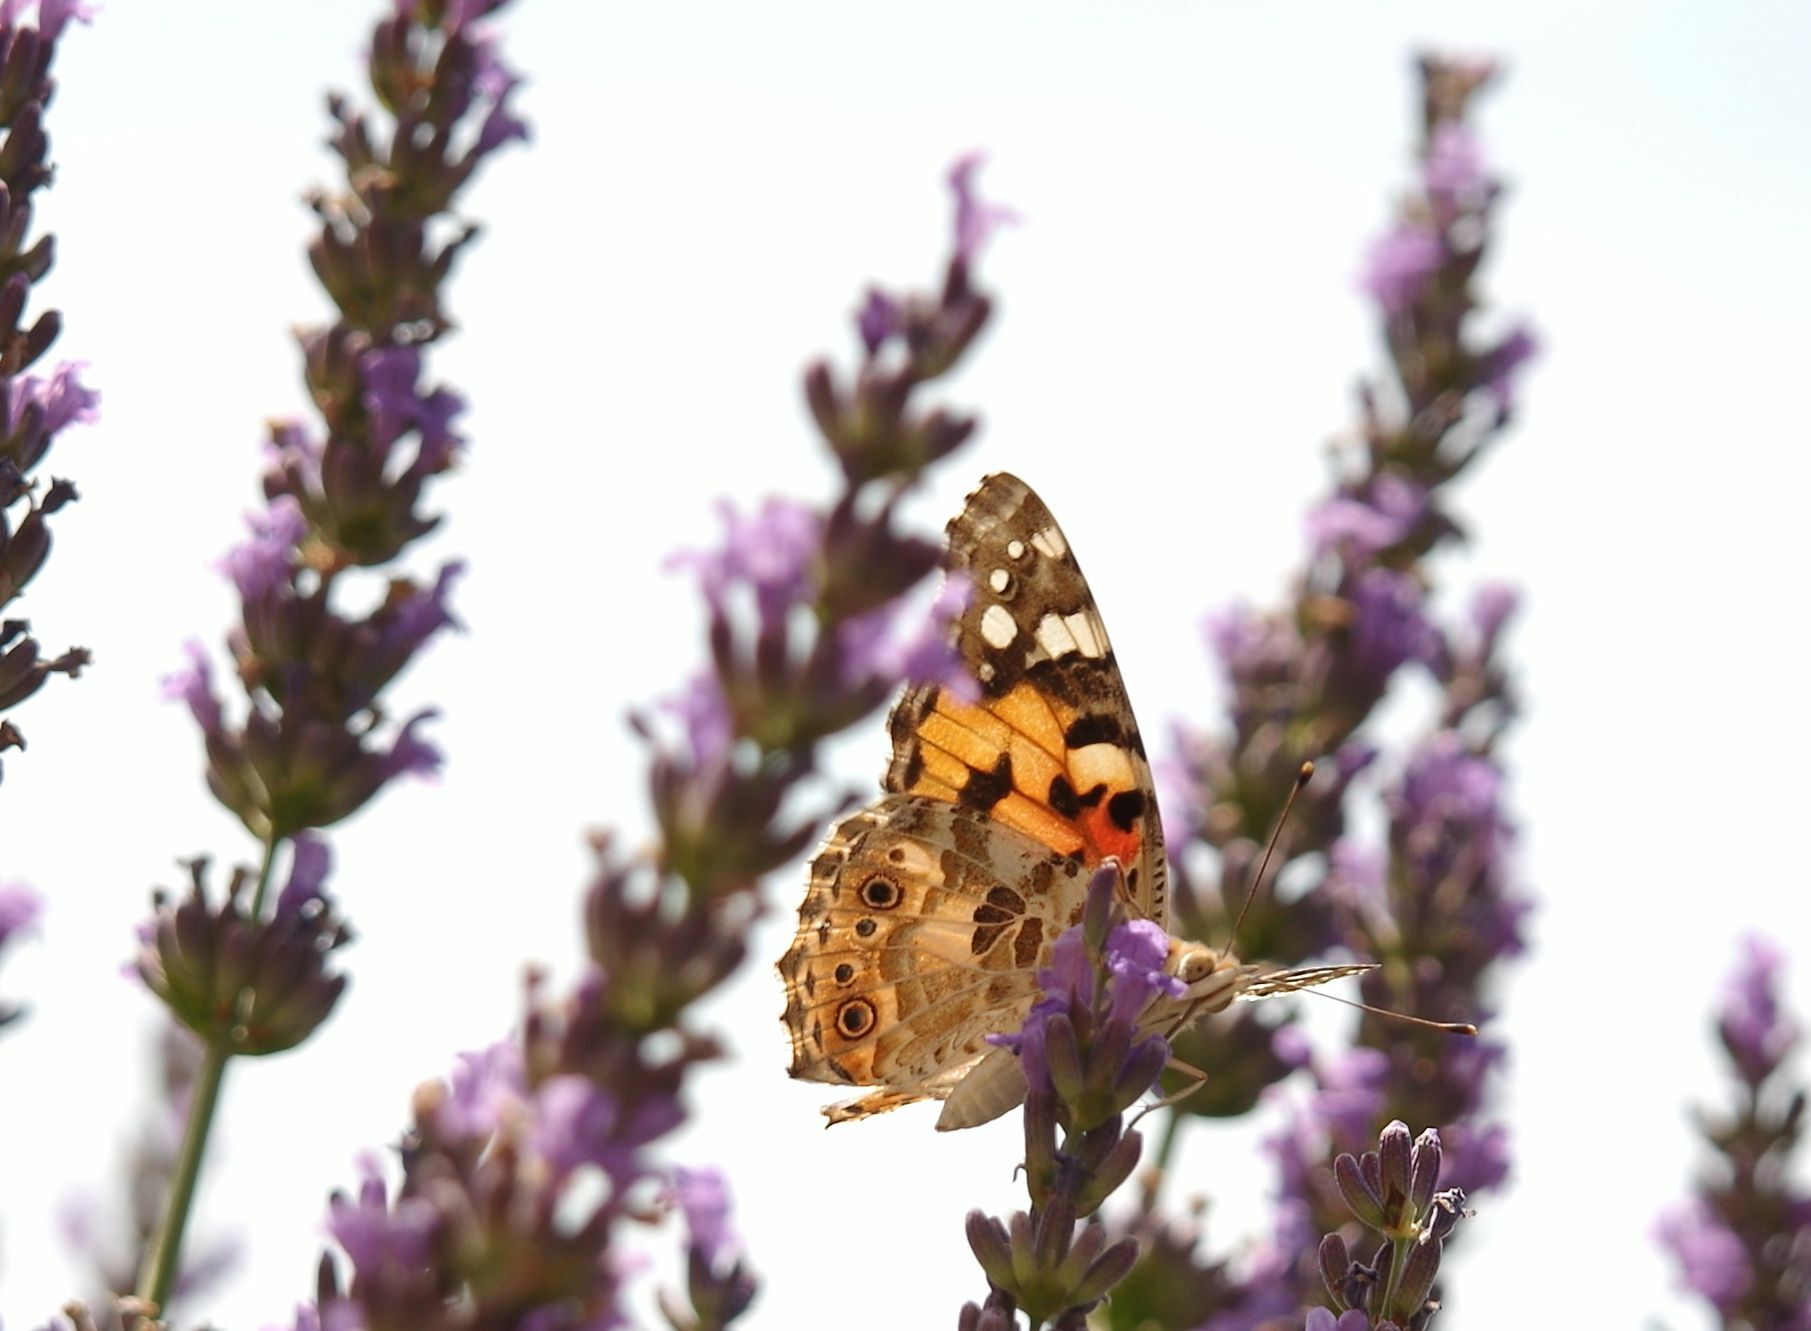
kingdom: Animalia
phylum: Arthropoda
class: Insecta
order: Lepidoptera
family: Nymphalidae
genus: Vanessa
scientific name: Vanessa cardui
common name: Painted lady
